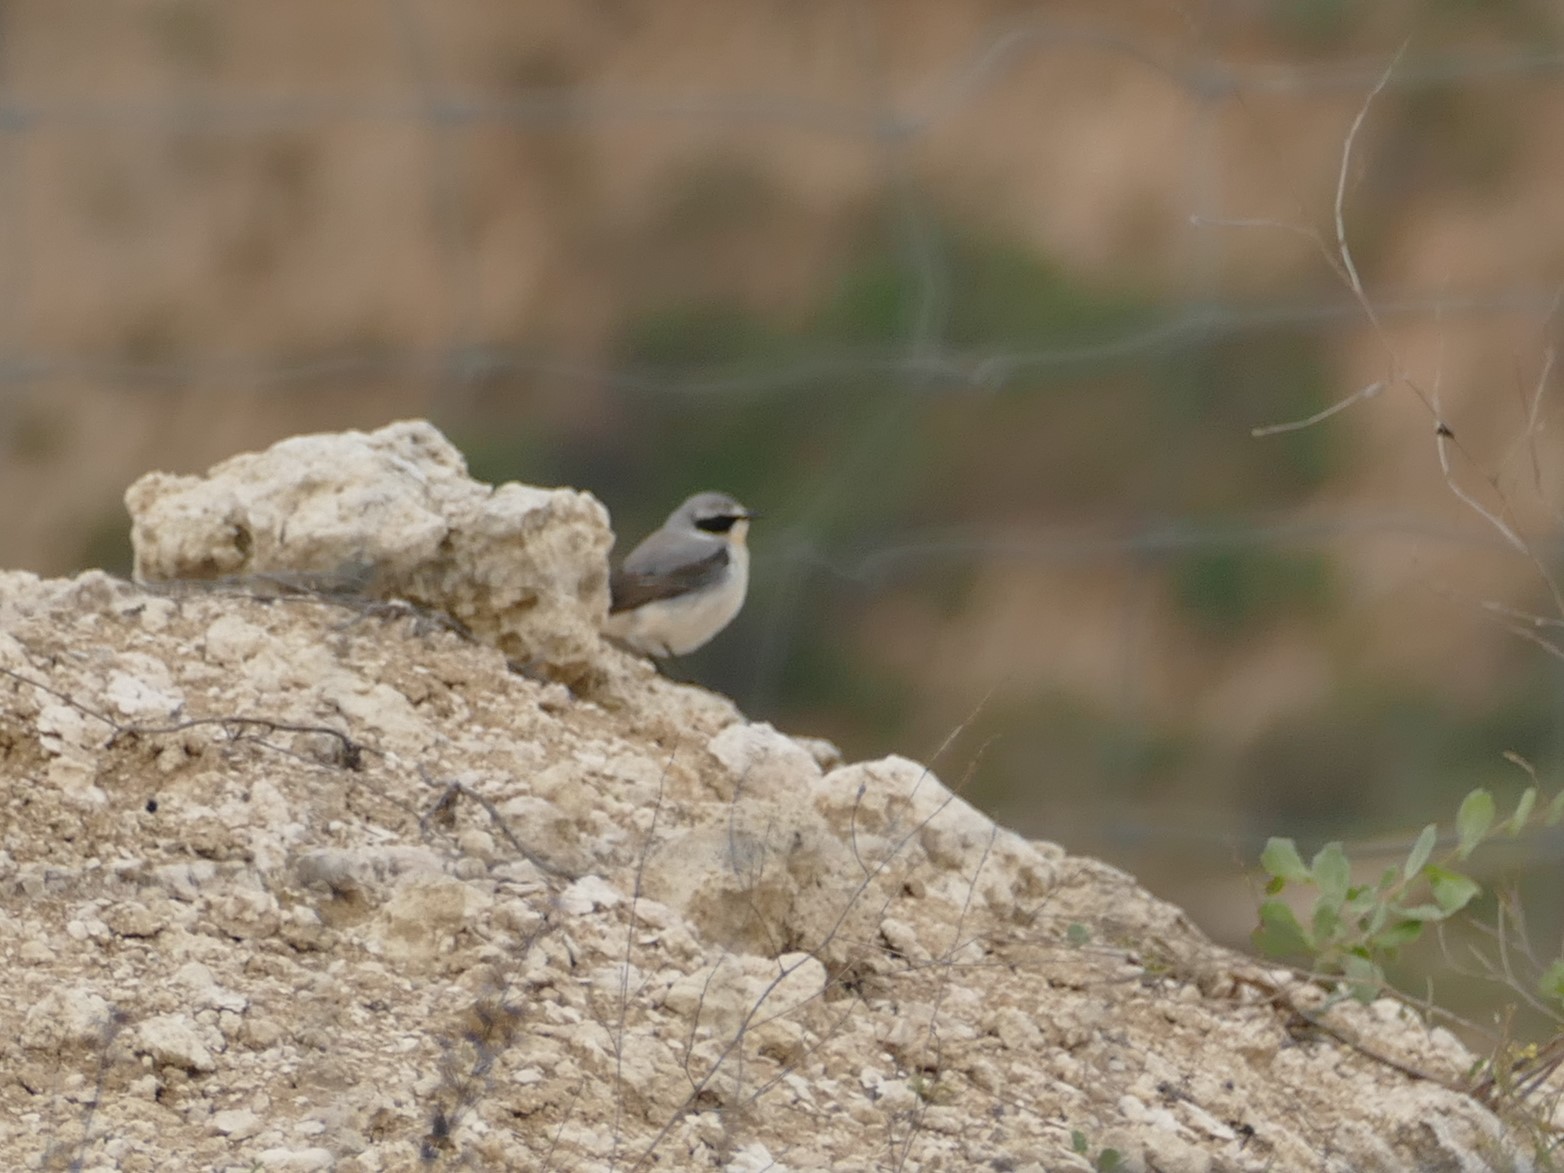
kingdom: Animalia
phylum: Chordata
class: Aves
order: Passeriformes
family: Muscicapidae
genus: Oenanthe
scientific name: Oenanthe oenanthe
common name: Northern wheatear
